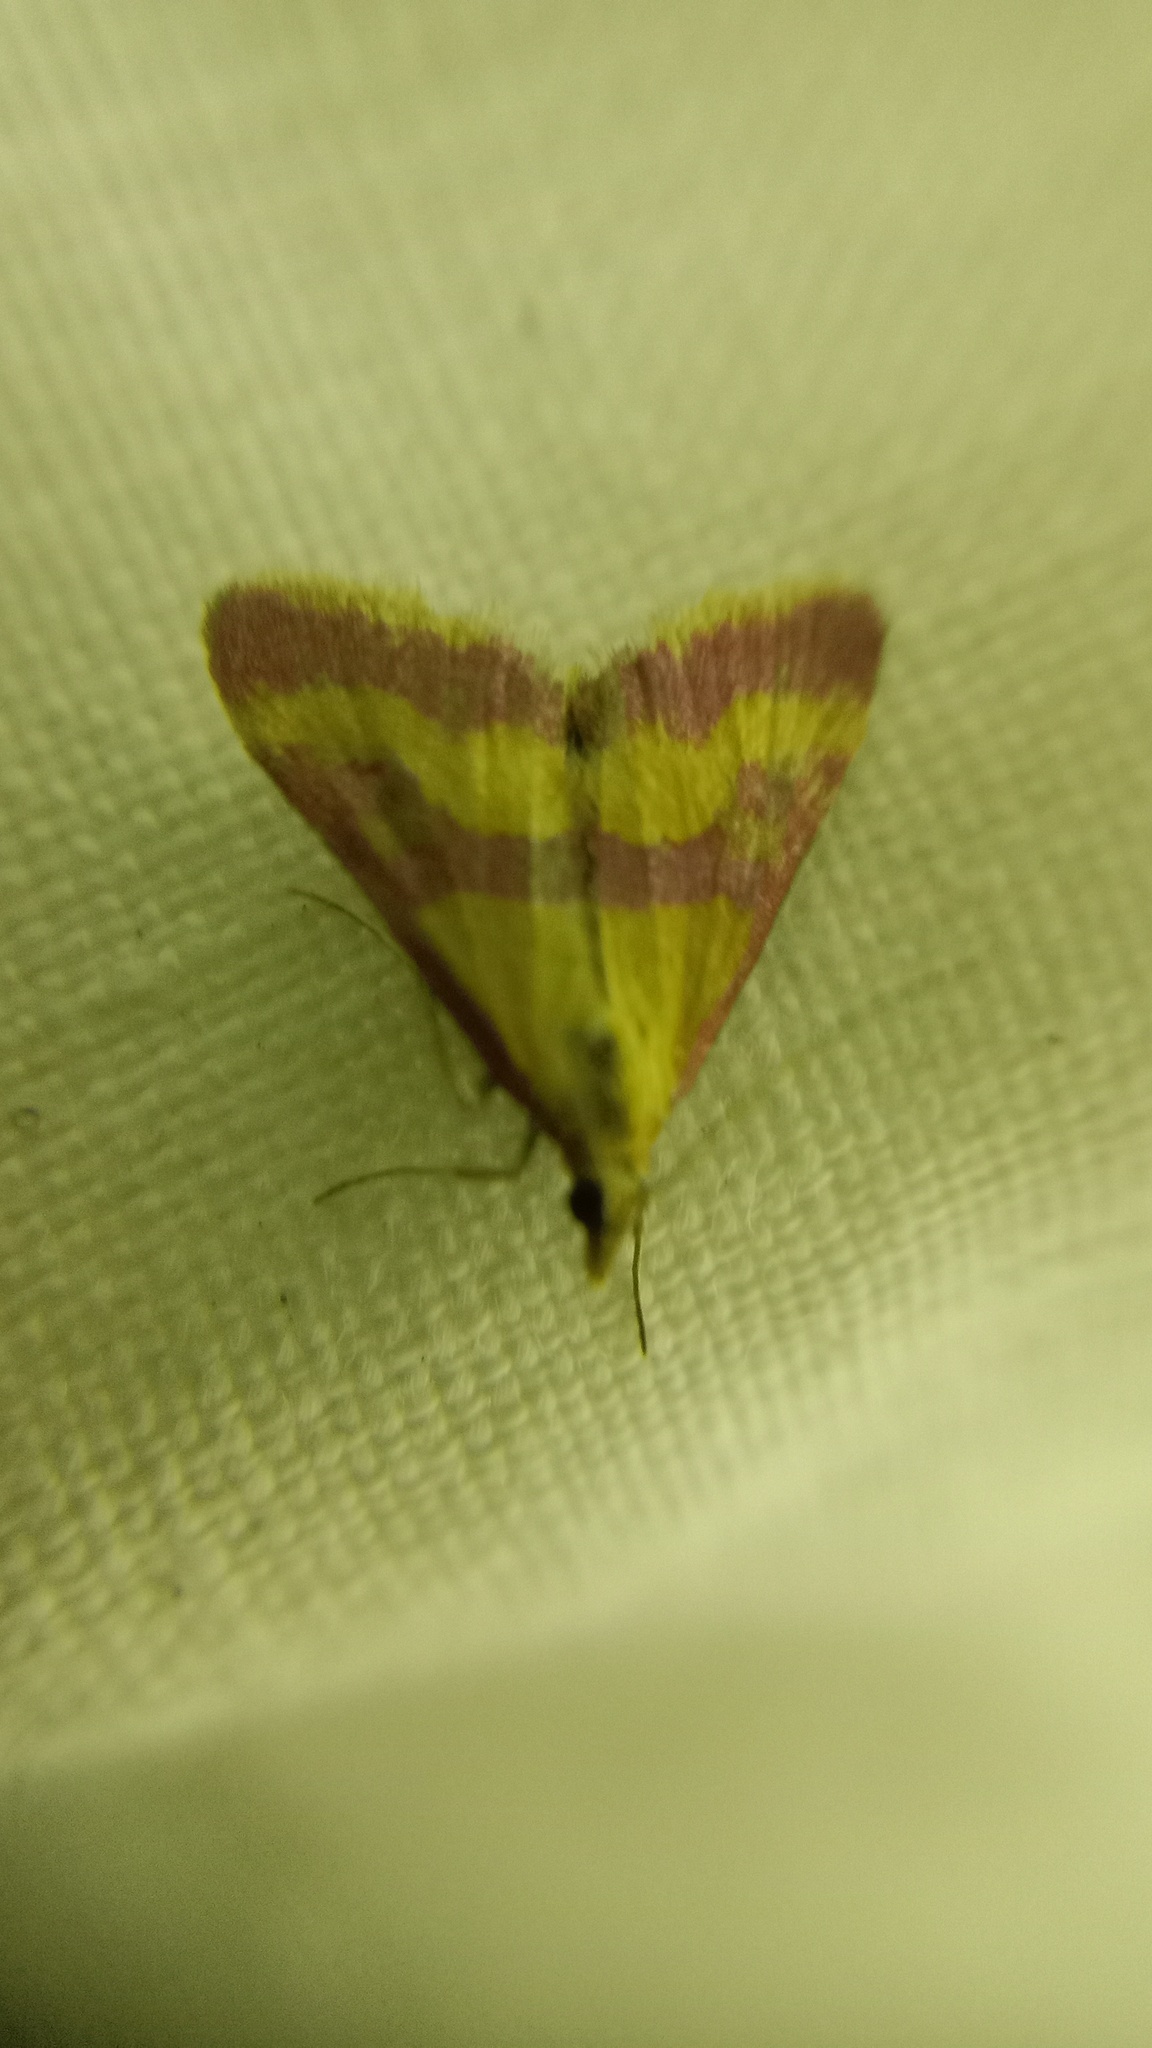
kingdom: Animalia
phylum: Arthropoda
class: Insecta
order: Lepidoptera
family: Crambidae
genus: Pyrausta
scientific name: Pyrausta sanguinalis
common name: Scarce crimson and gold
